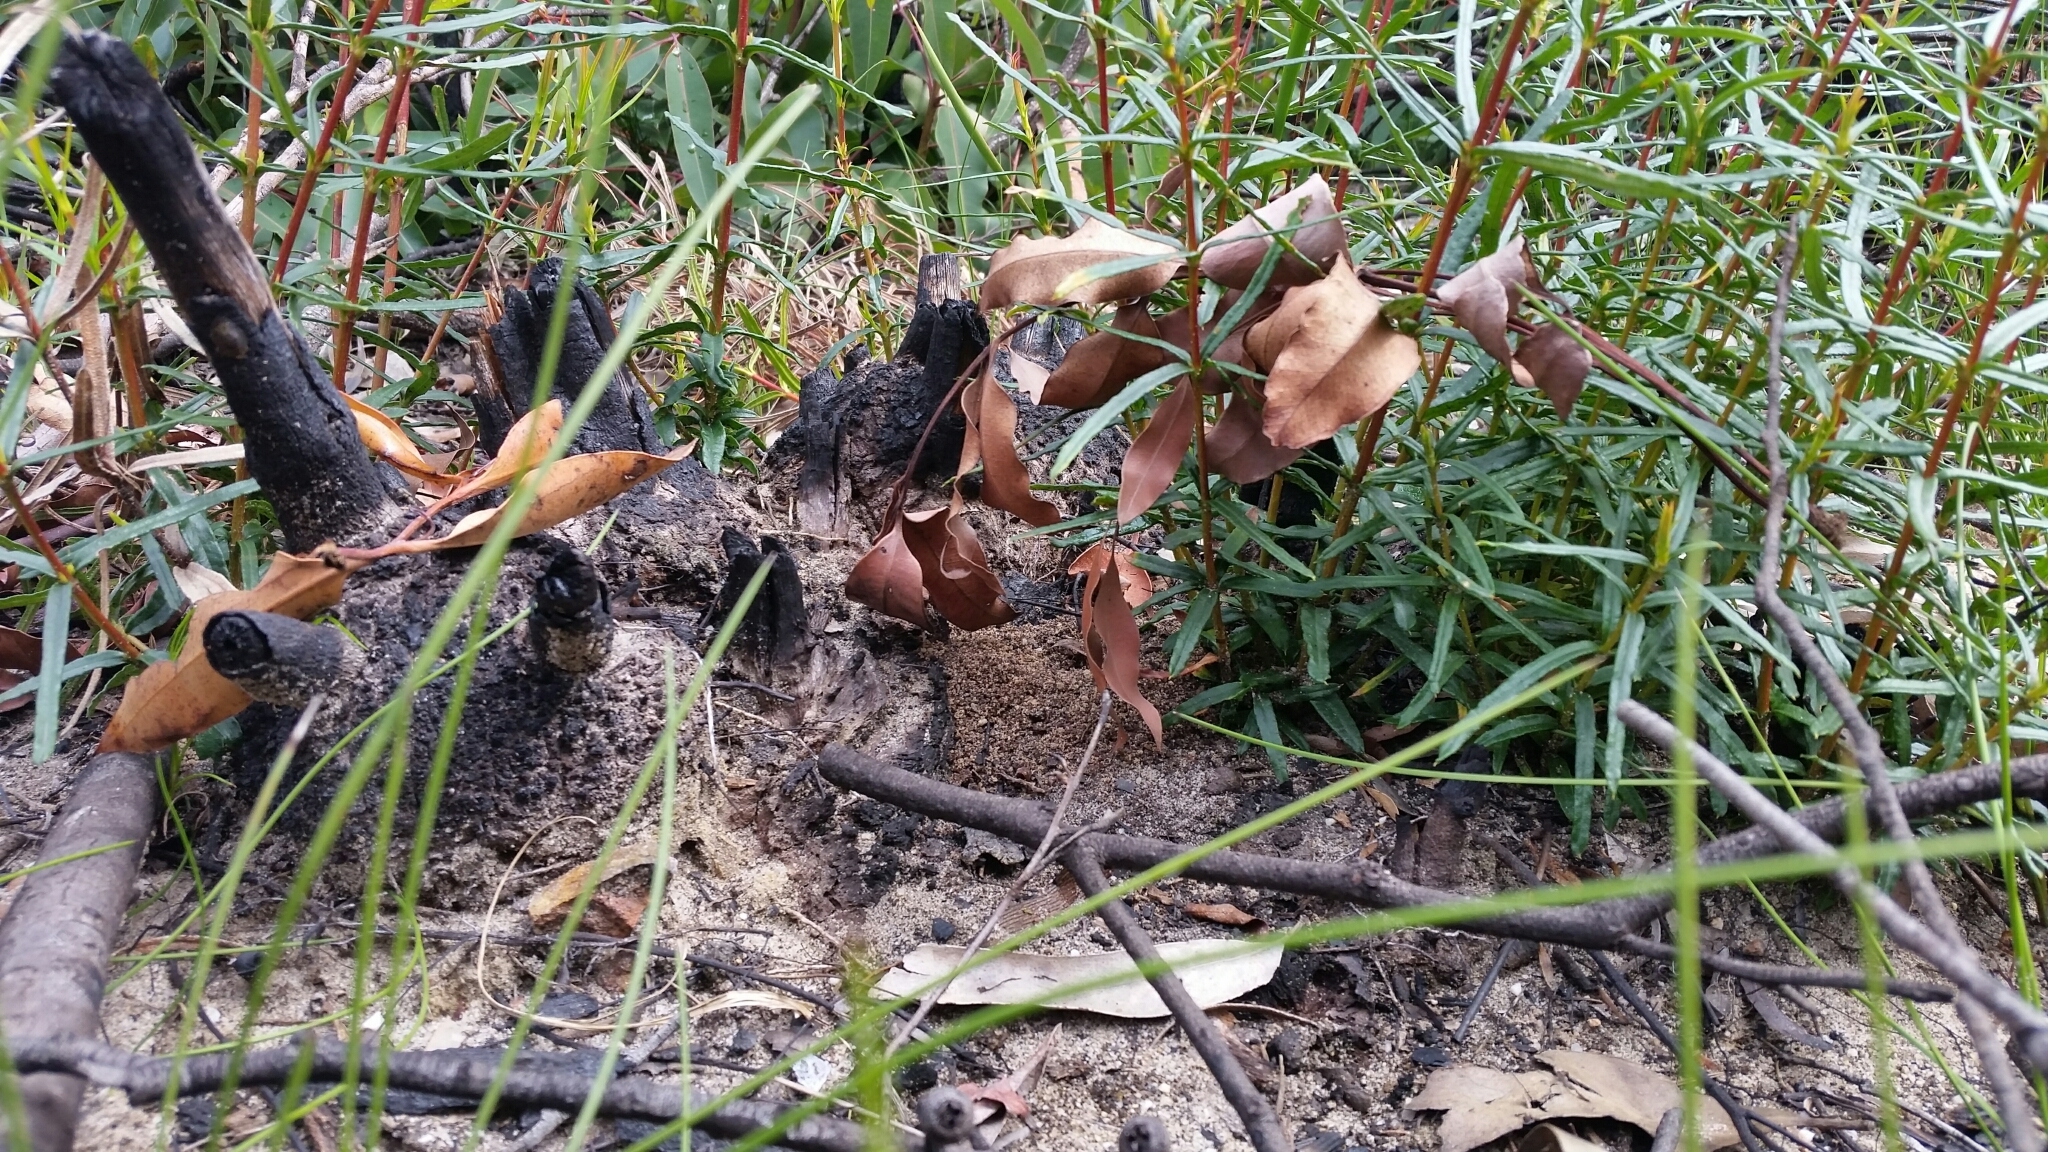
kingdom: Plantae
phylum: Tracheophyta
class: Magnoliopsida
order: Proteales
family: Proteaceae
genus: Lambertia
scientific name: Lambertia formosa
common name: Mountain-devil
